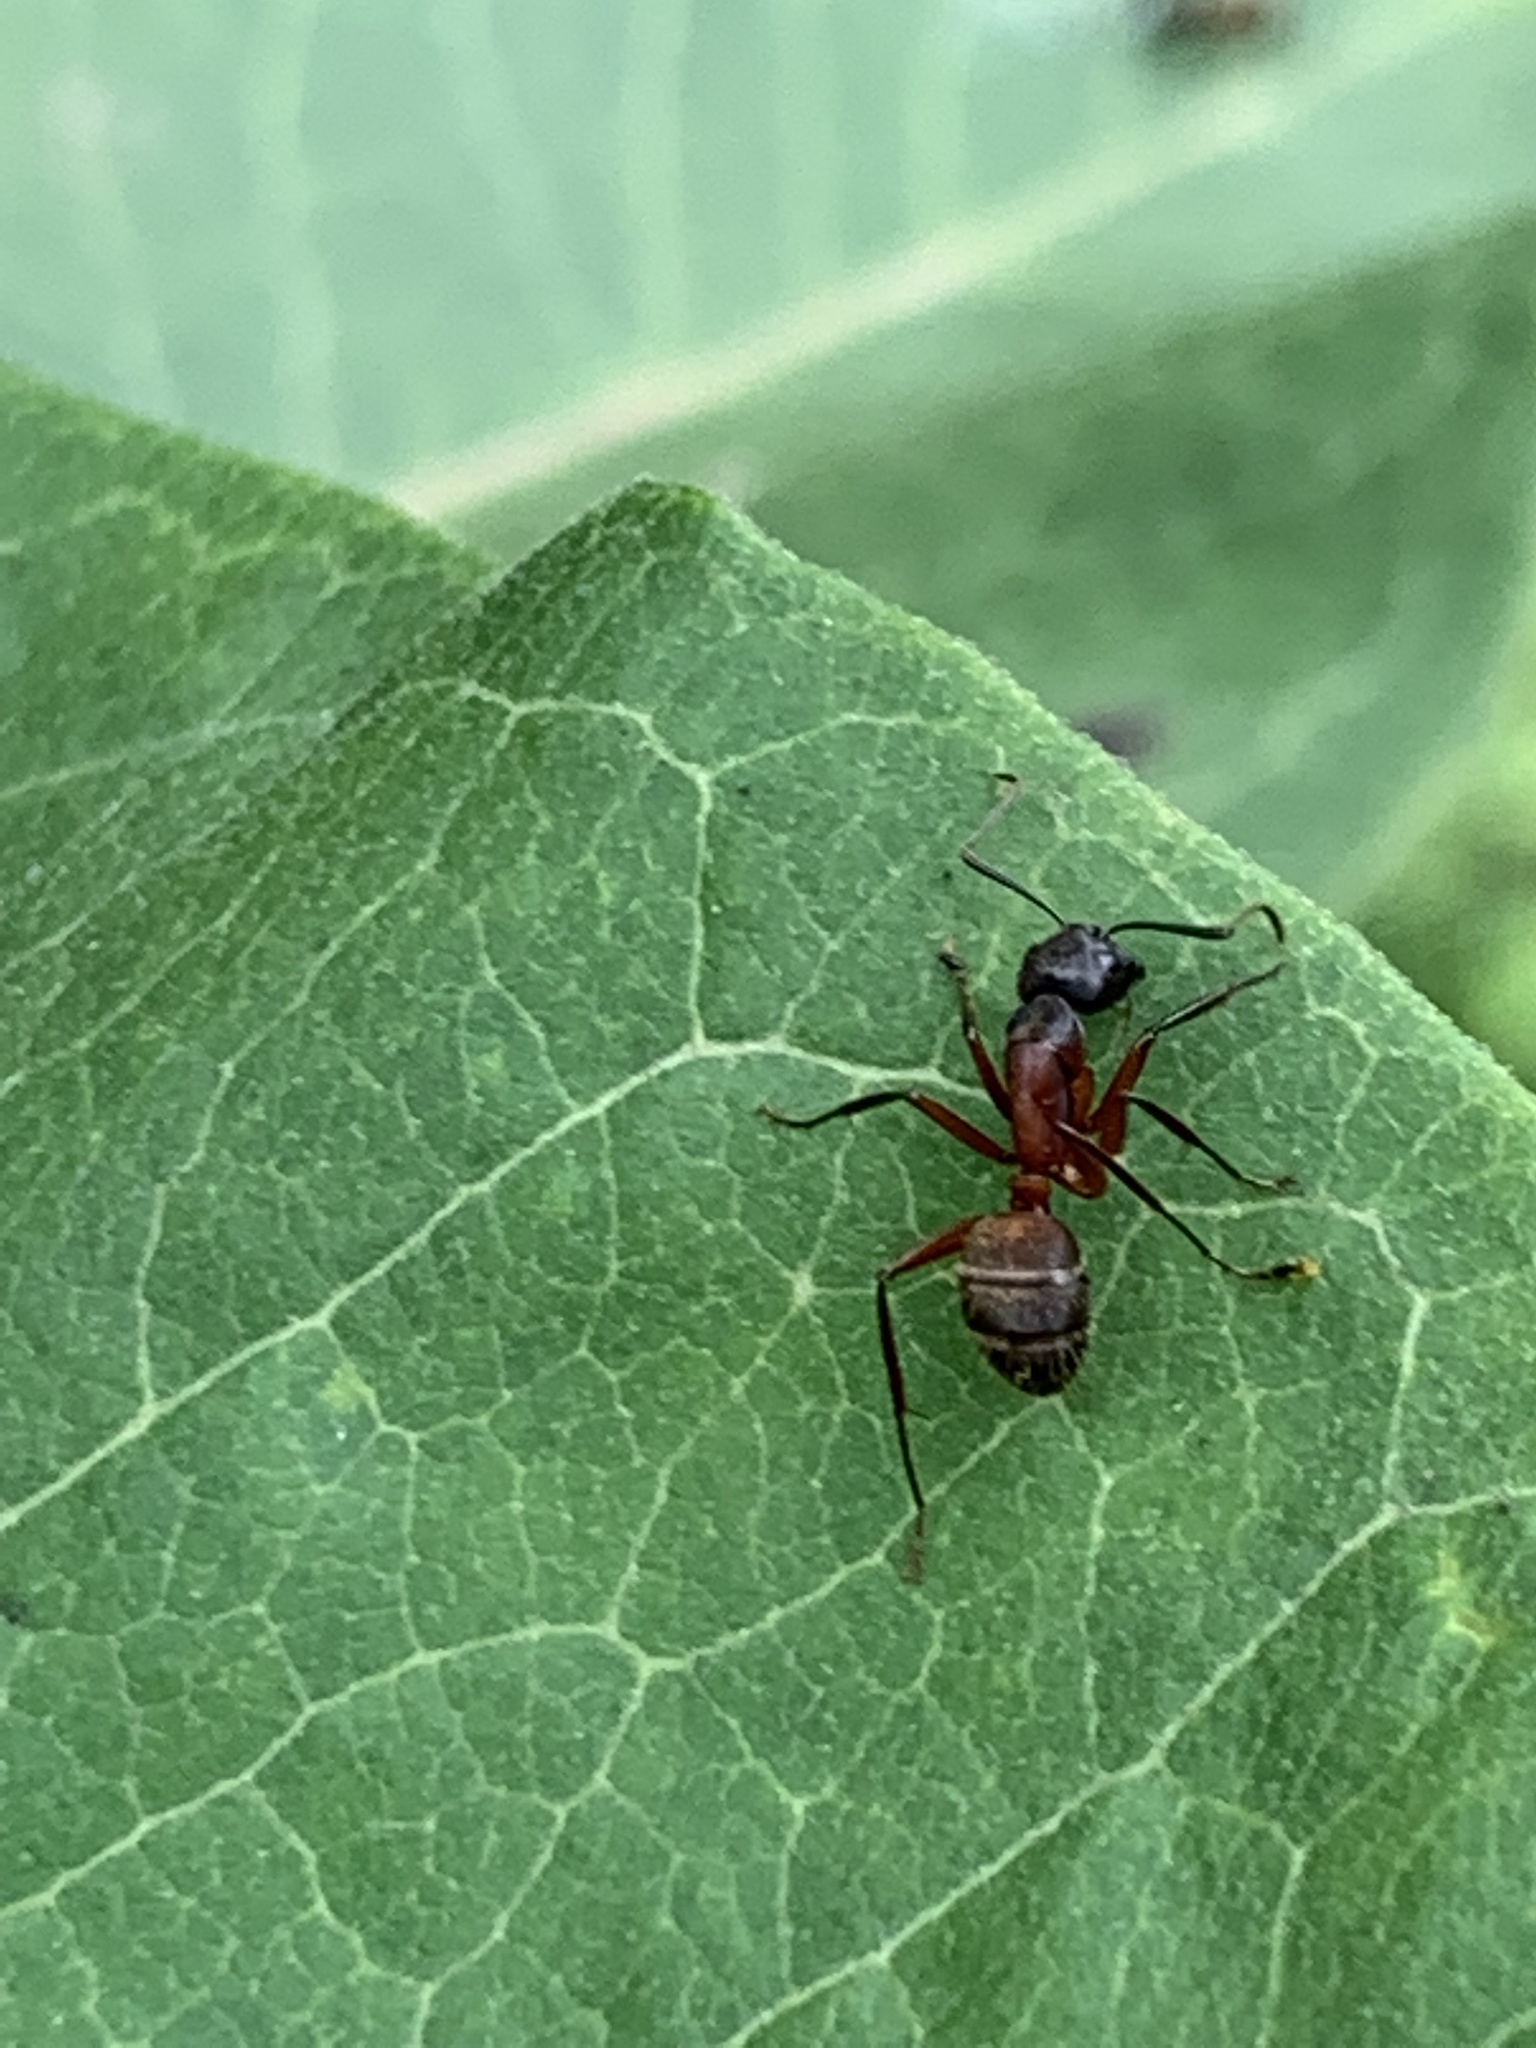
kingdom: Animalia
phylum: Arthropoda
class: Insecta
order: Hymenoptera
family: Formicidae
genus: Camponotus
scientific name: Camponotus chromaiodes
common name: Red carpenter ant
